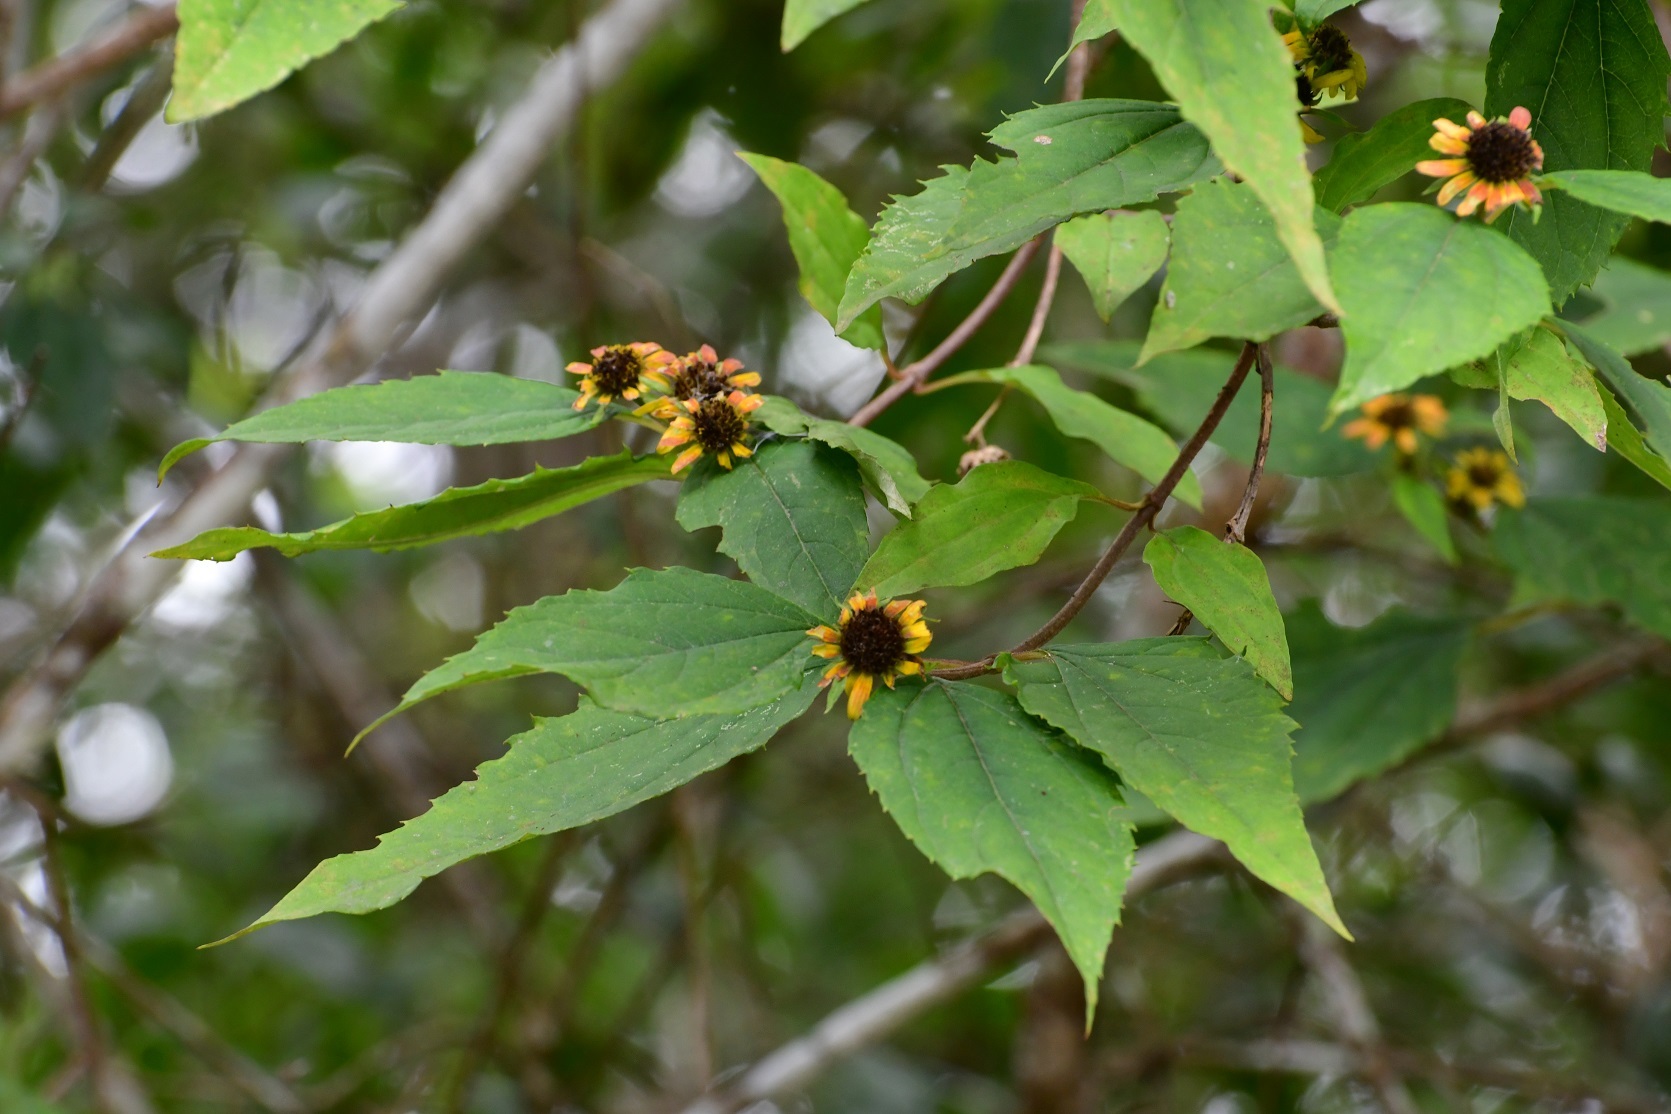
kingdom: Plantae
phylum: Tracheophyta
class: Magnoliopsida
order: Asterales
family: Asteraceae
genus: Philactis
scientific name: Philactis zinnioides
